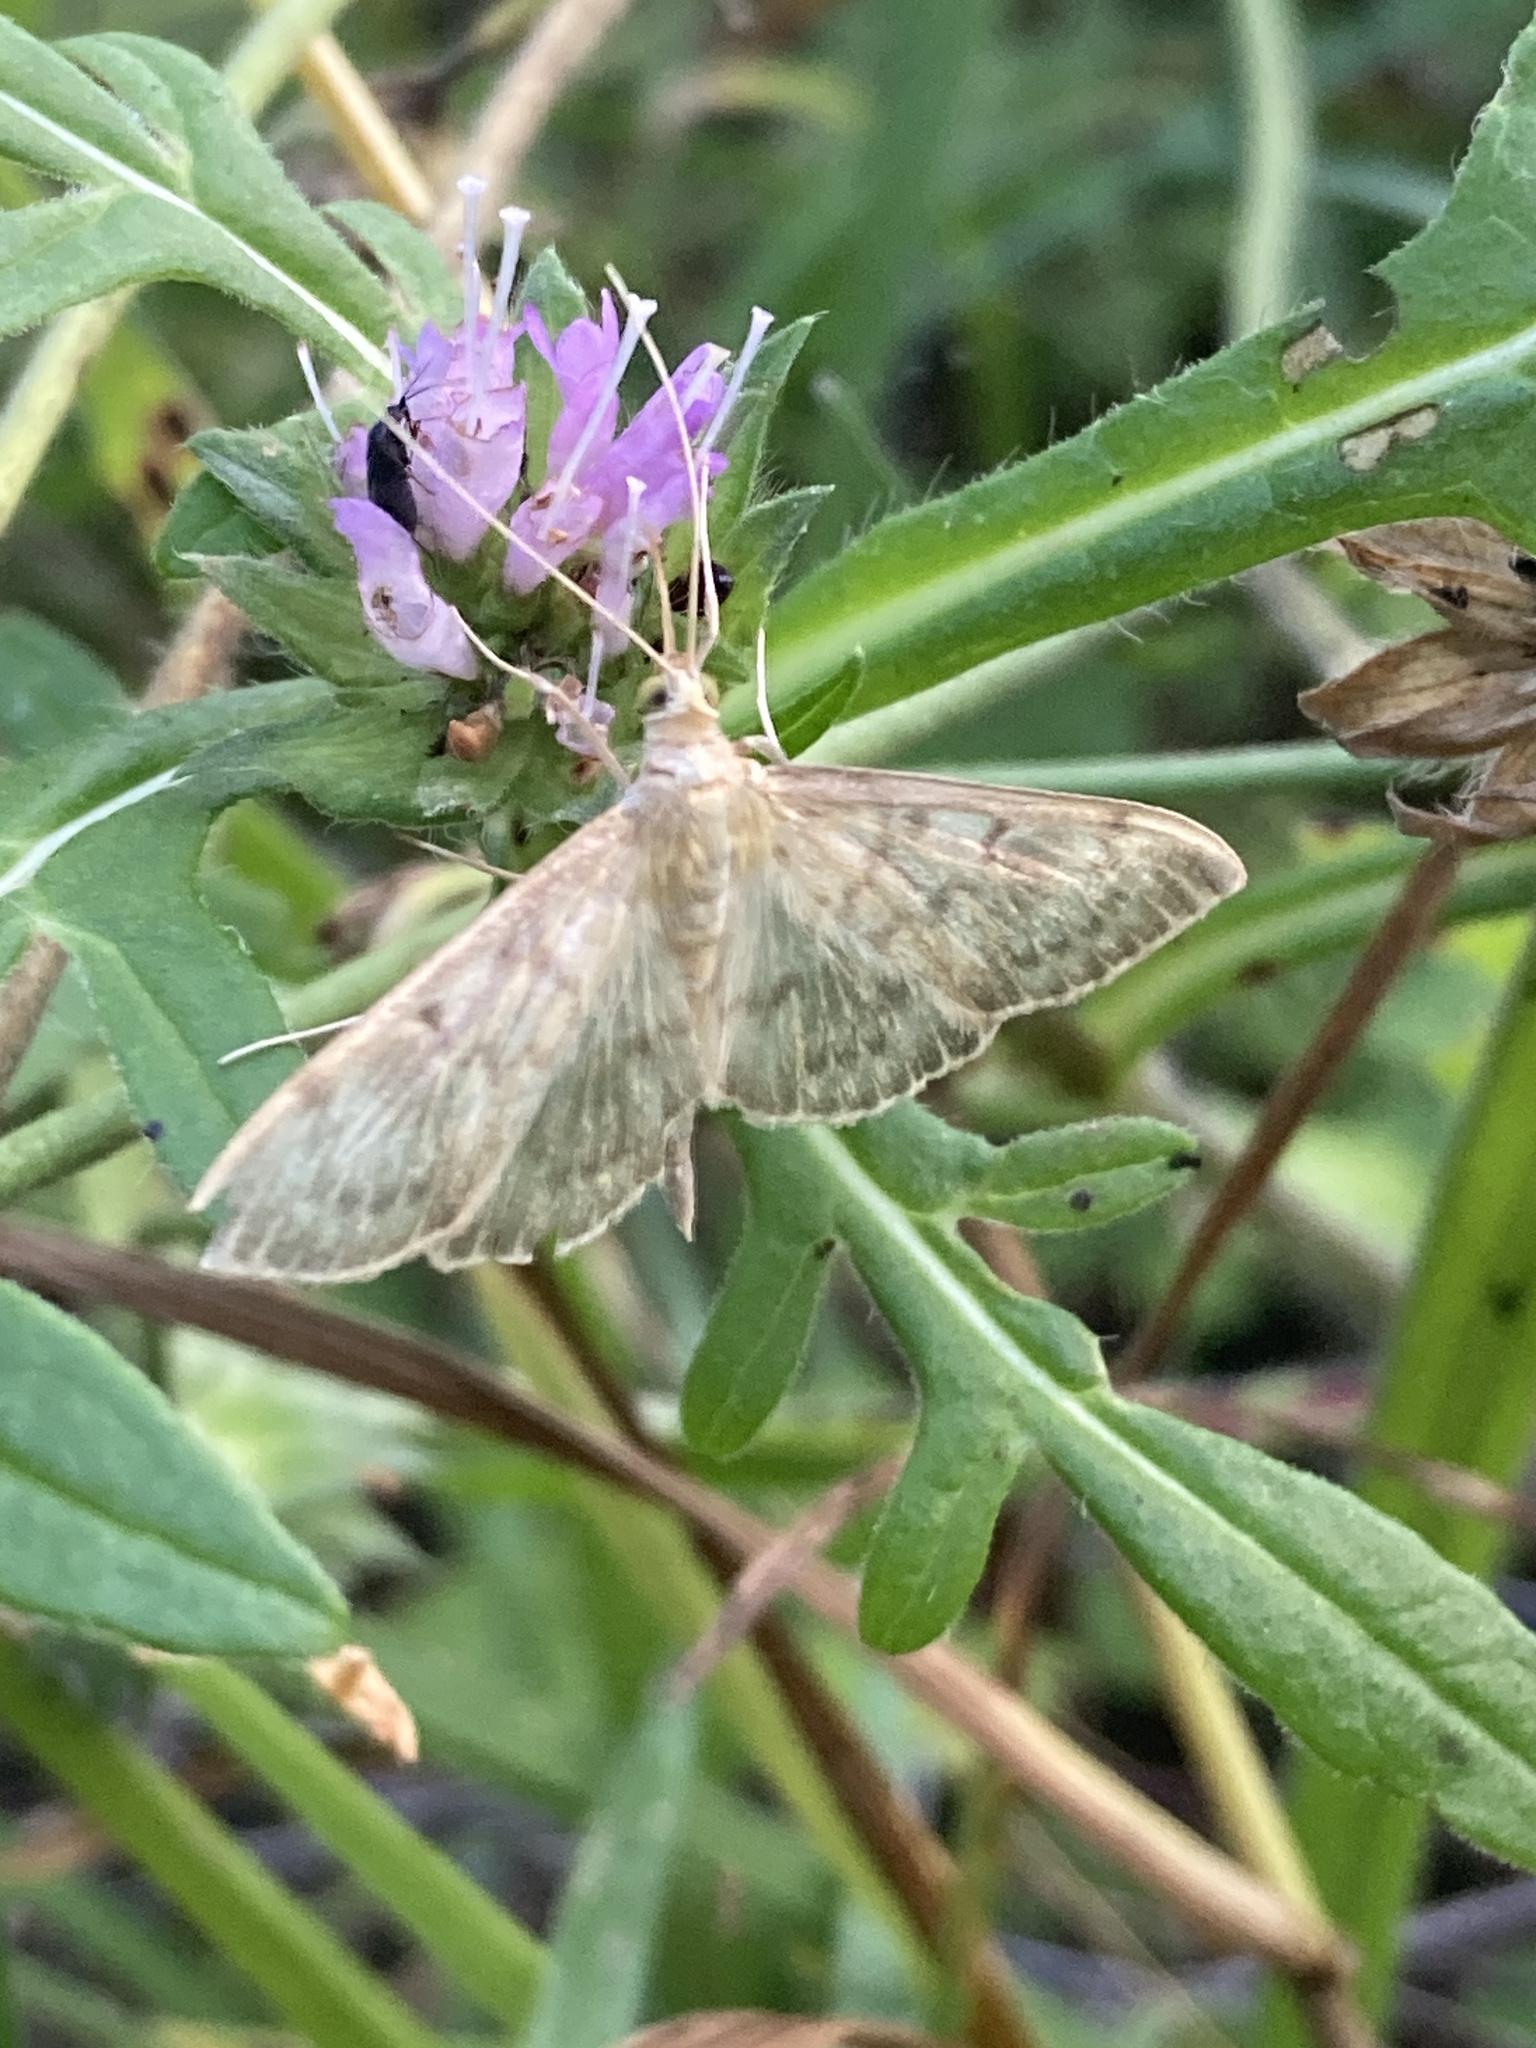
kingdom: Animalia
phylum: Arthropoda
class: Insecta
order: Lepidoptera
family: Crambidae
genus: Patania
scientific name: Patania ruralis
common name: Mother of pearl
